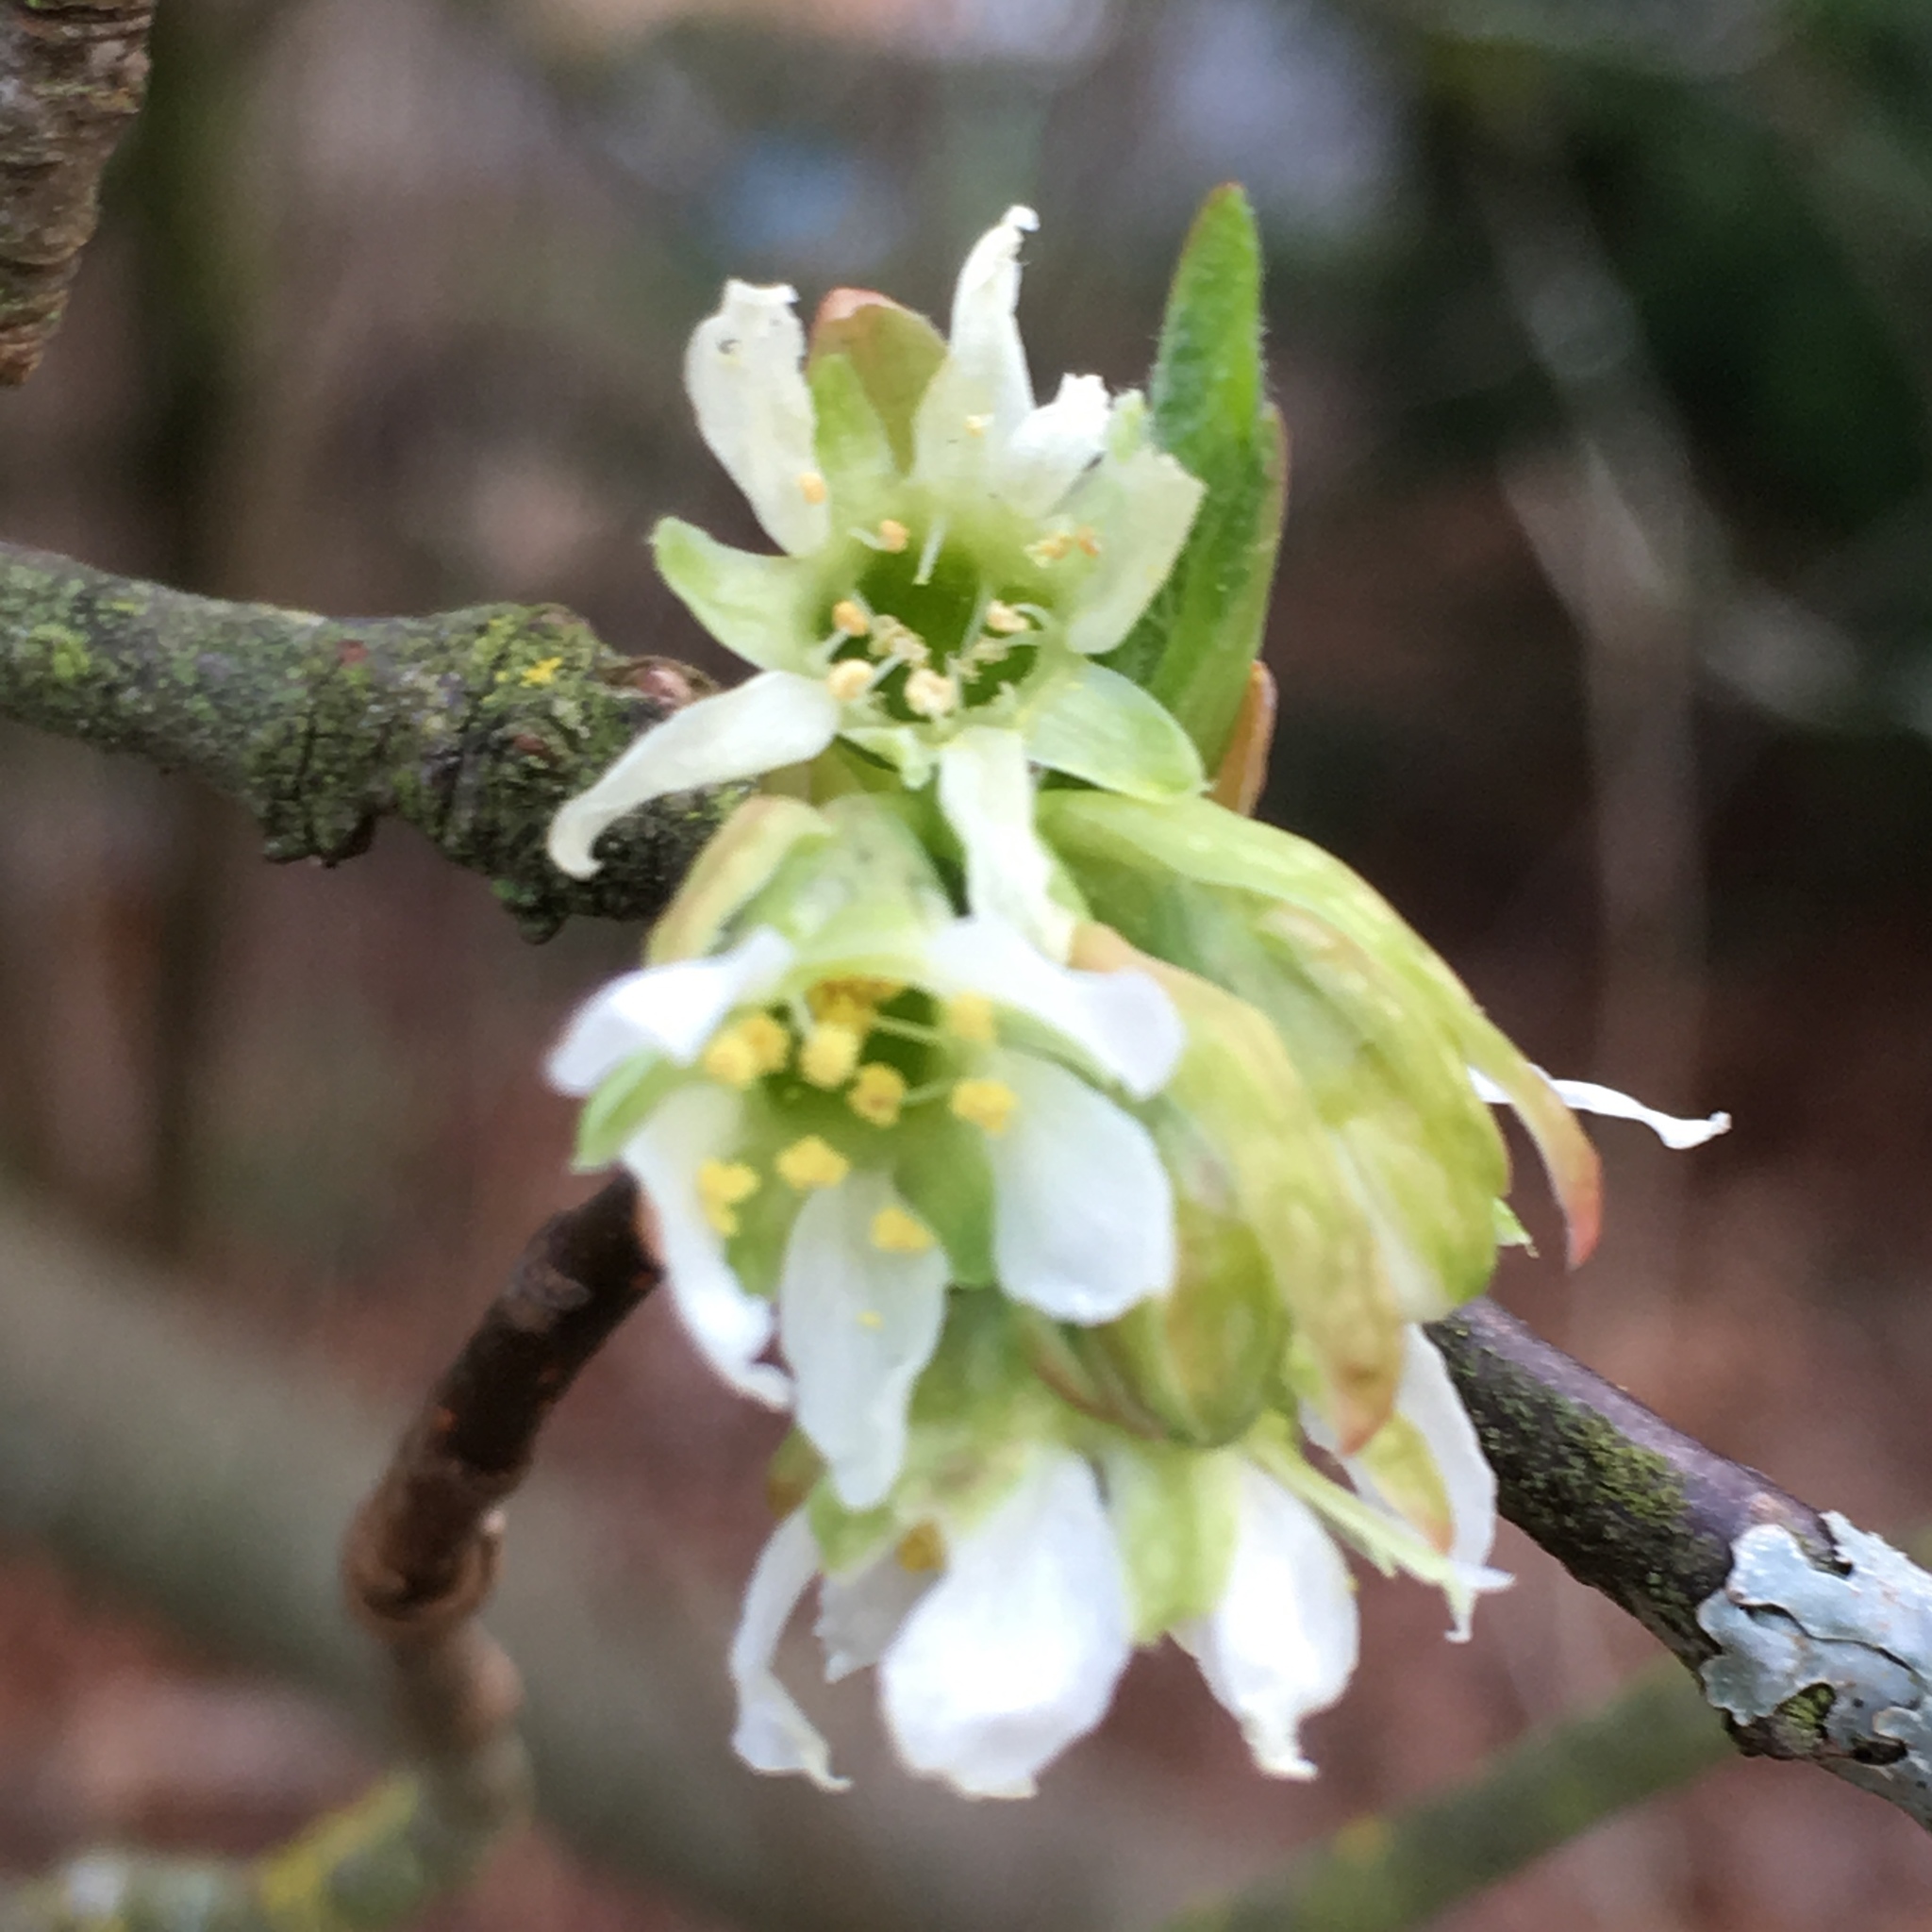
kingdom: Plantae
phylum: Tracheophyta
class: Magnoliopsida
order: Rosales
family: Rosaceae
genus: Oemleria
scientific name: Oemleria cerasiformis
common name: Osoberry
